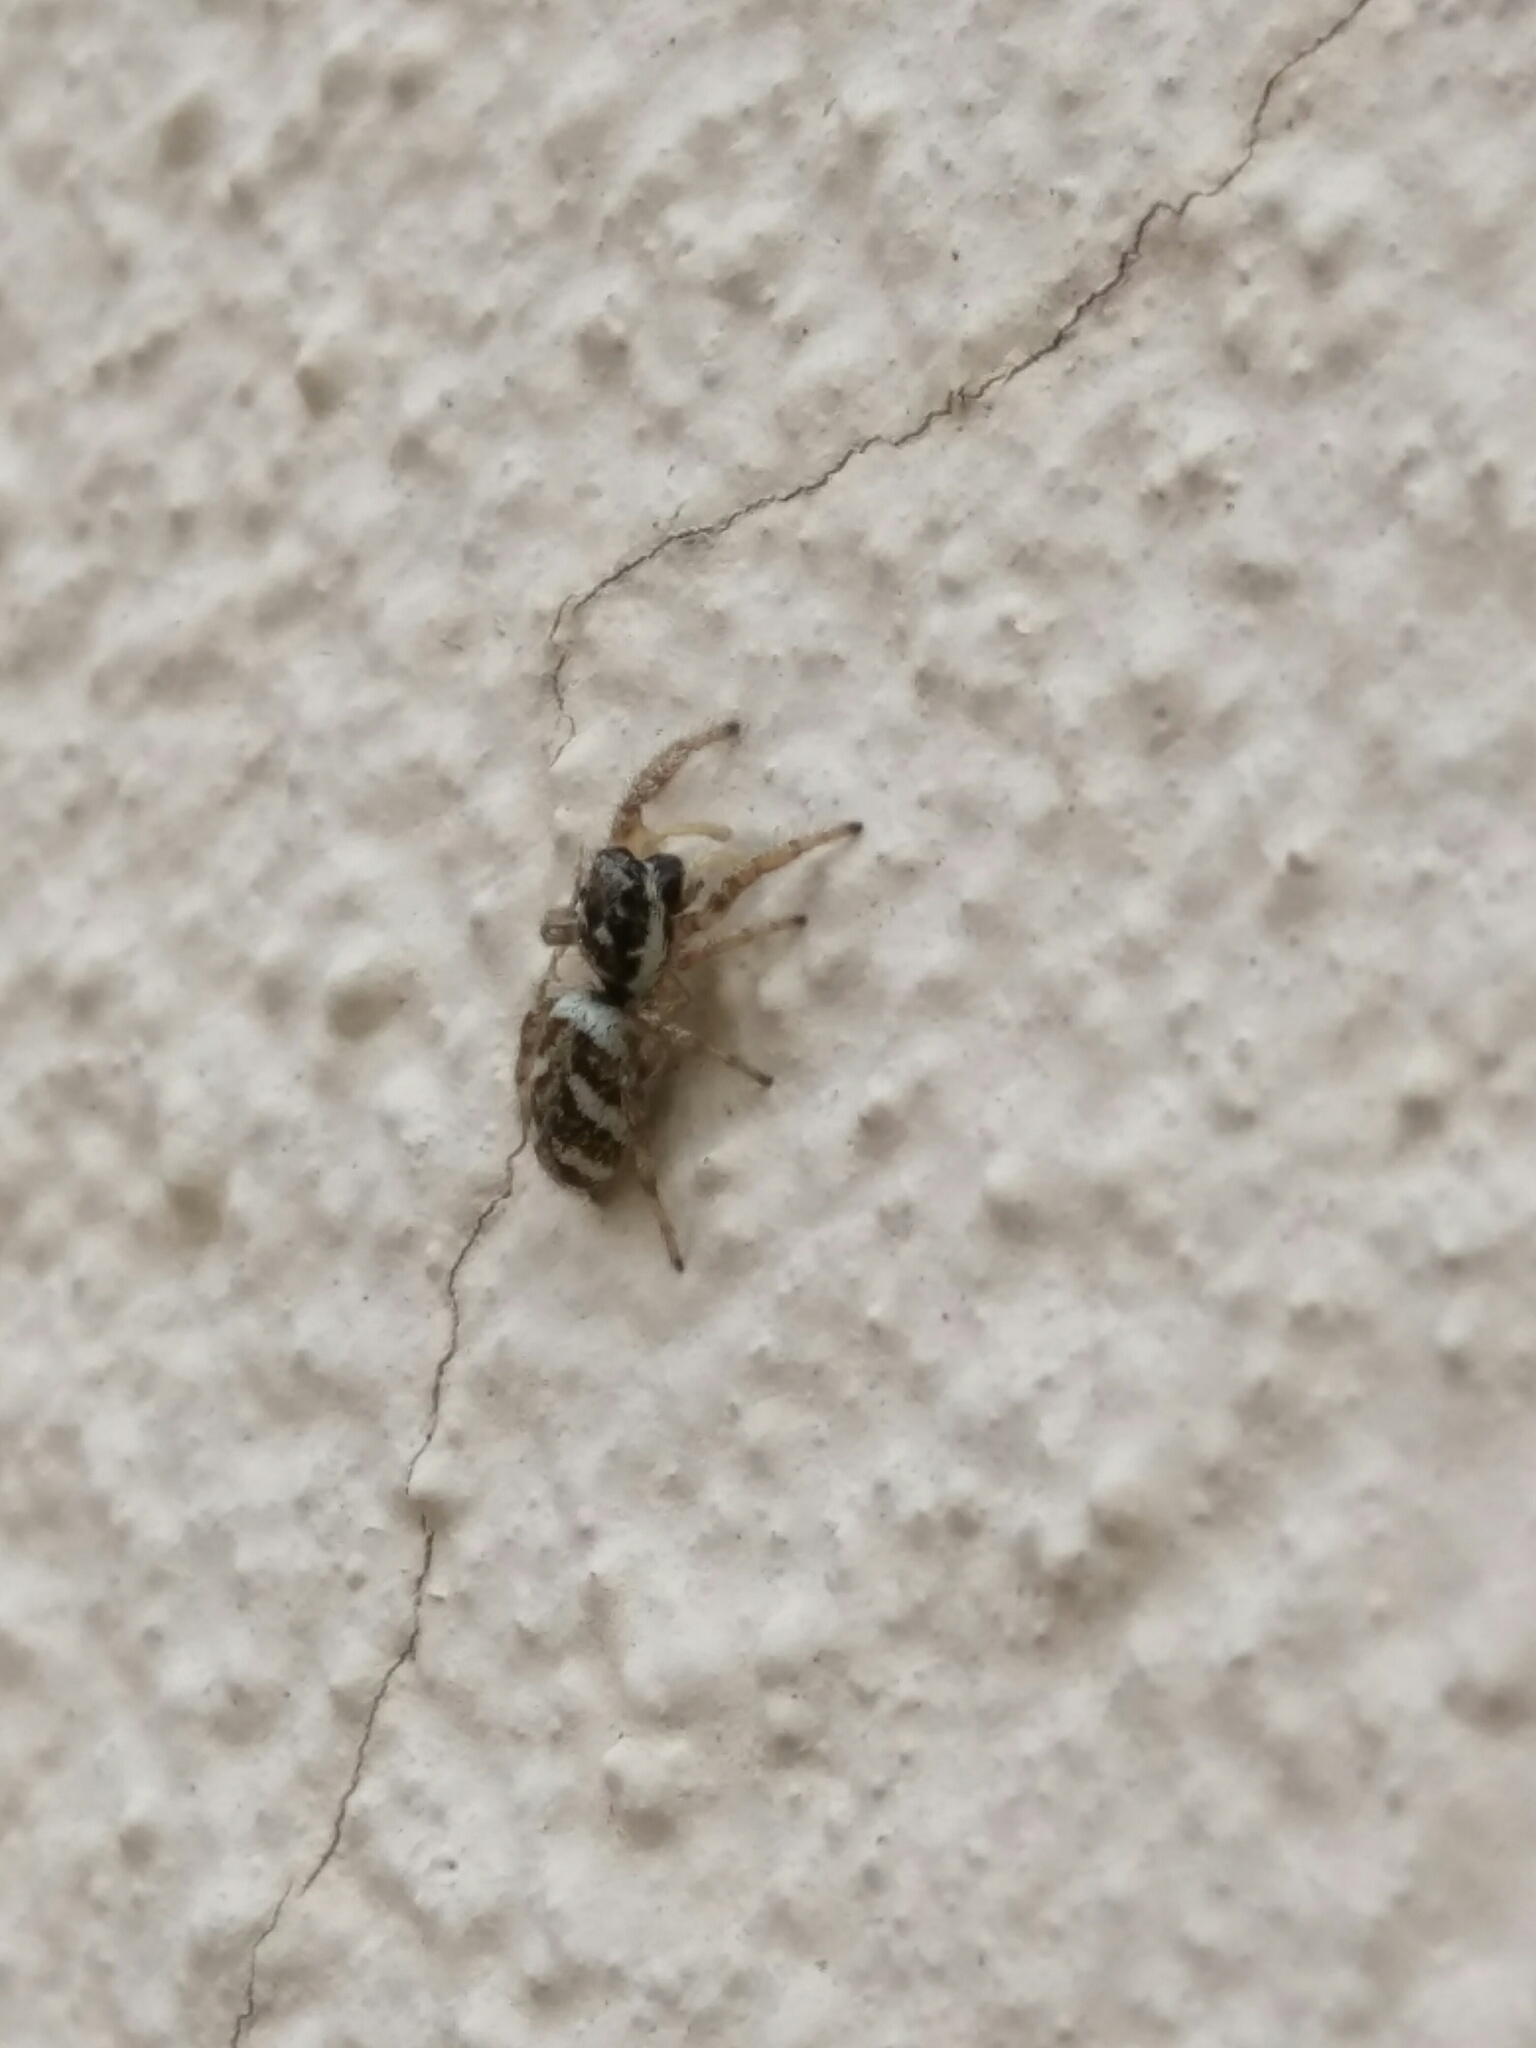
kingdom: Animalia
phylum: Arthropoda
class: Arachnida
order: Araneae
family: Salticidae
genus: Salticus
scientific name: Salticus scenicus
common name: Zebra jumper
